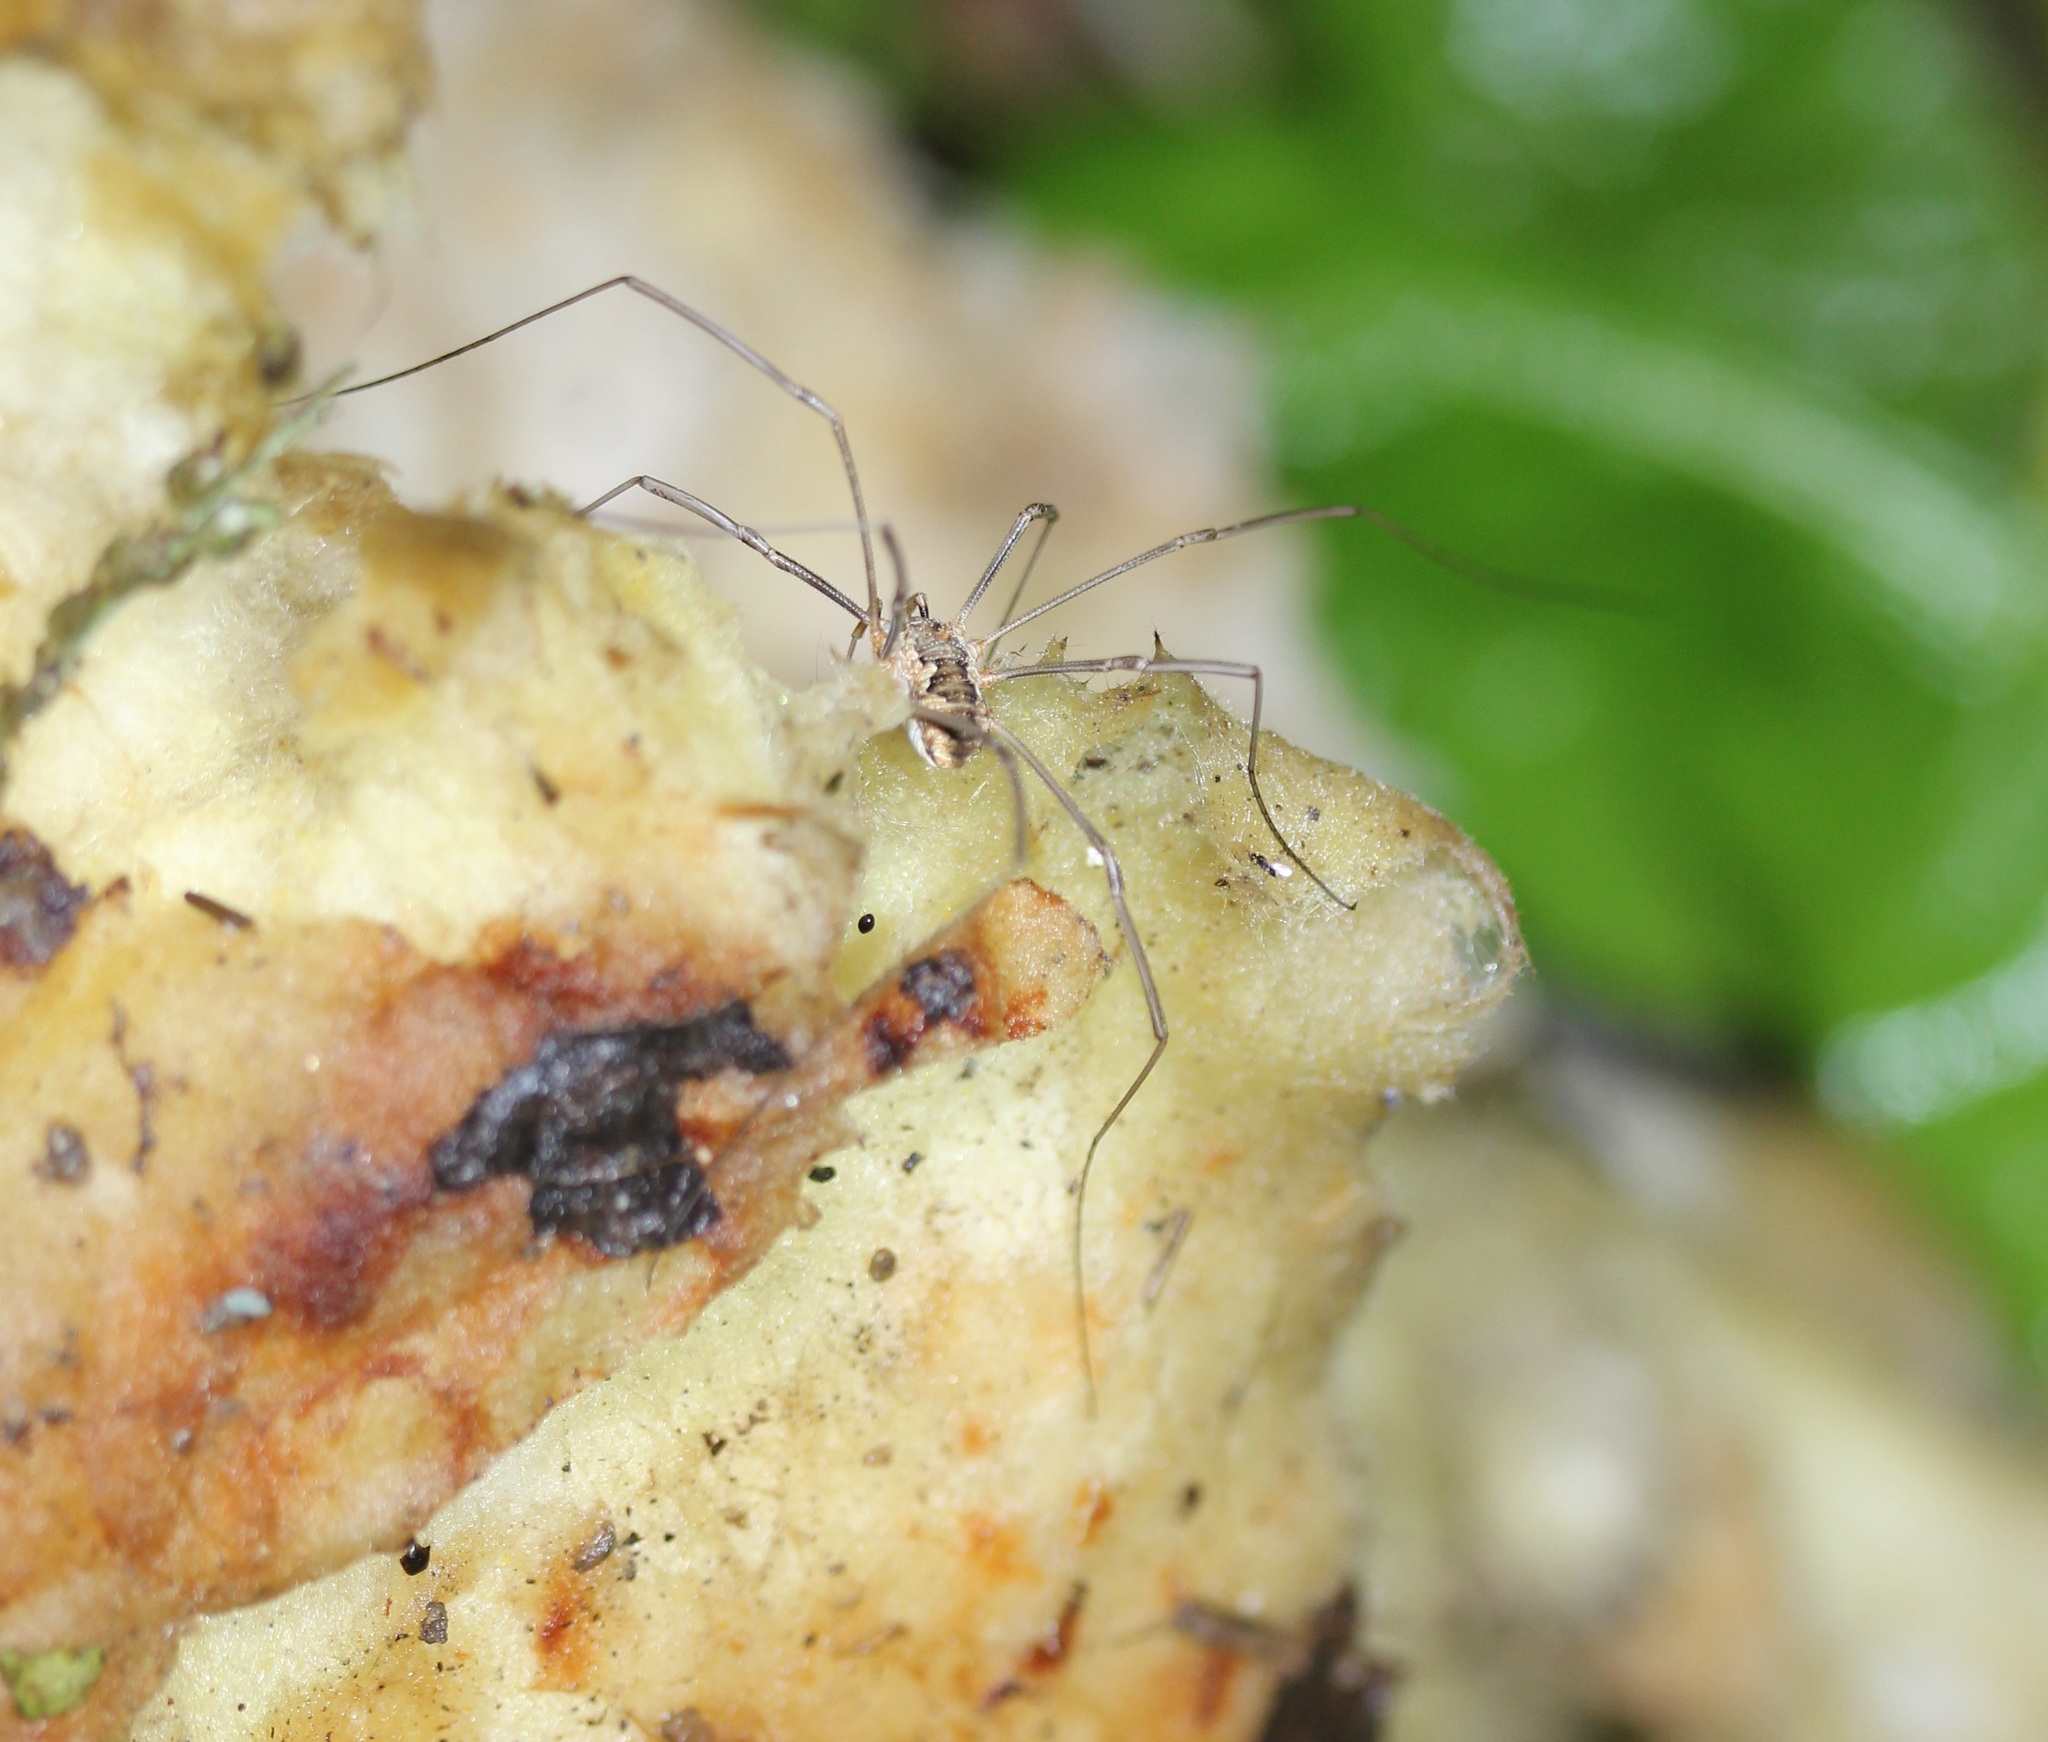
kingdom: Animalia
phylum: Arthropoda
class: Arachnida
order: Opiliones
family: Phalangiidae
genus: Phalangium
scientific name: Phalangium opilio
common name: Daddy longleg
